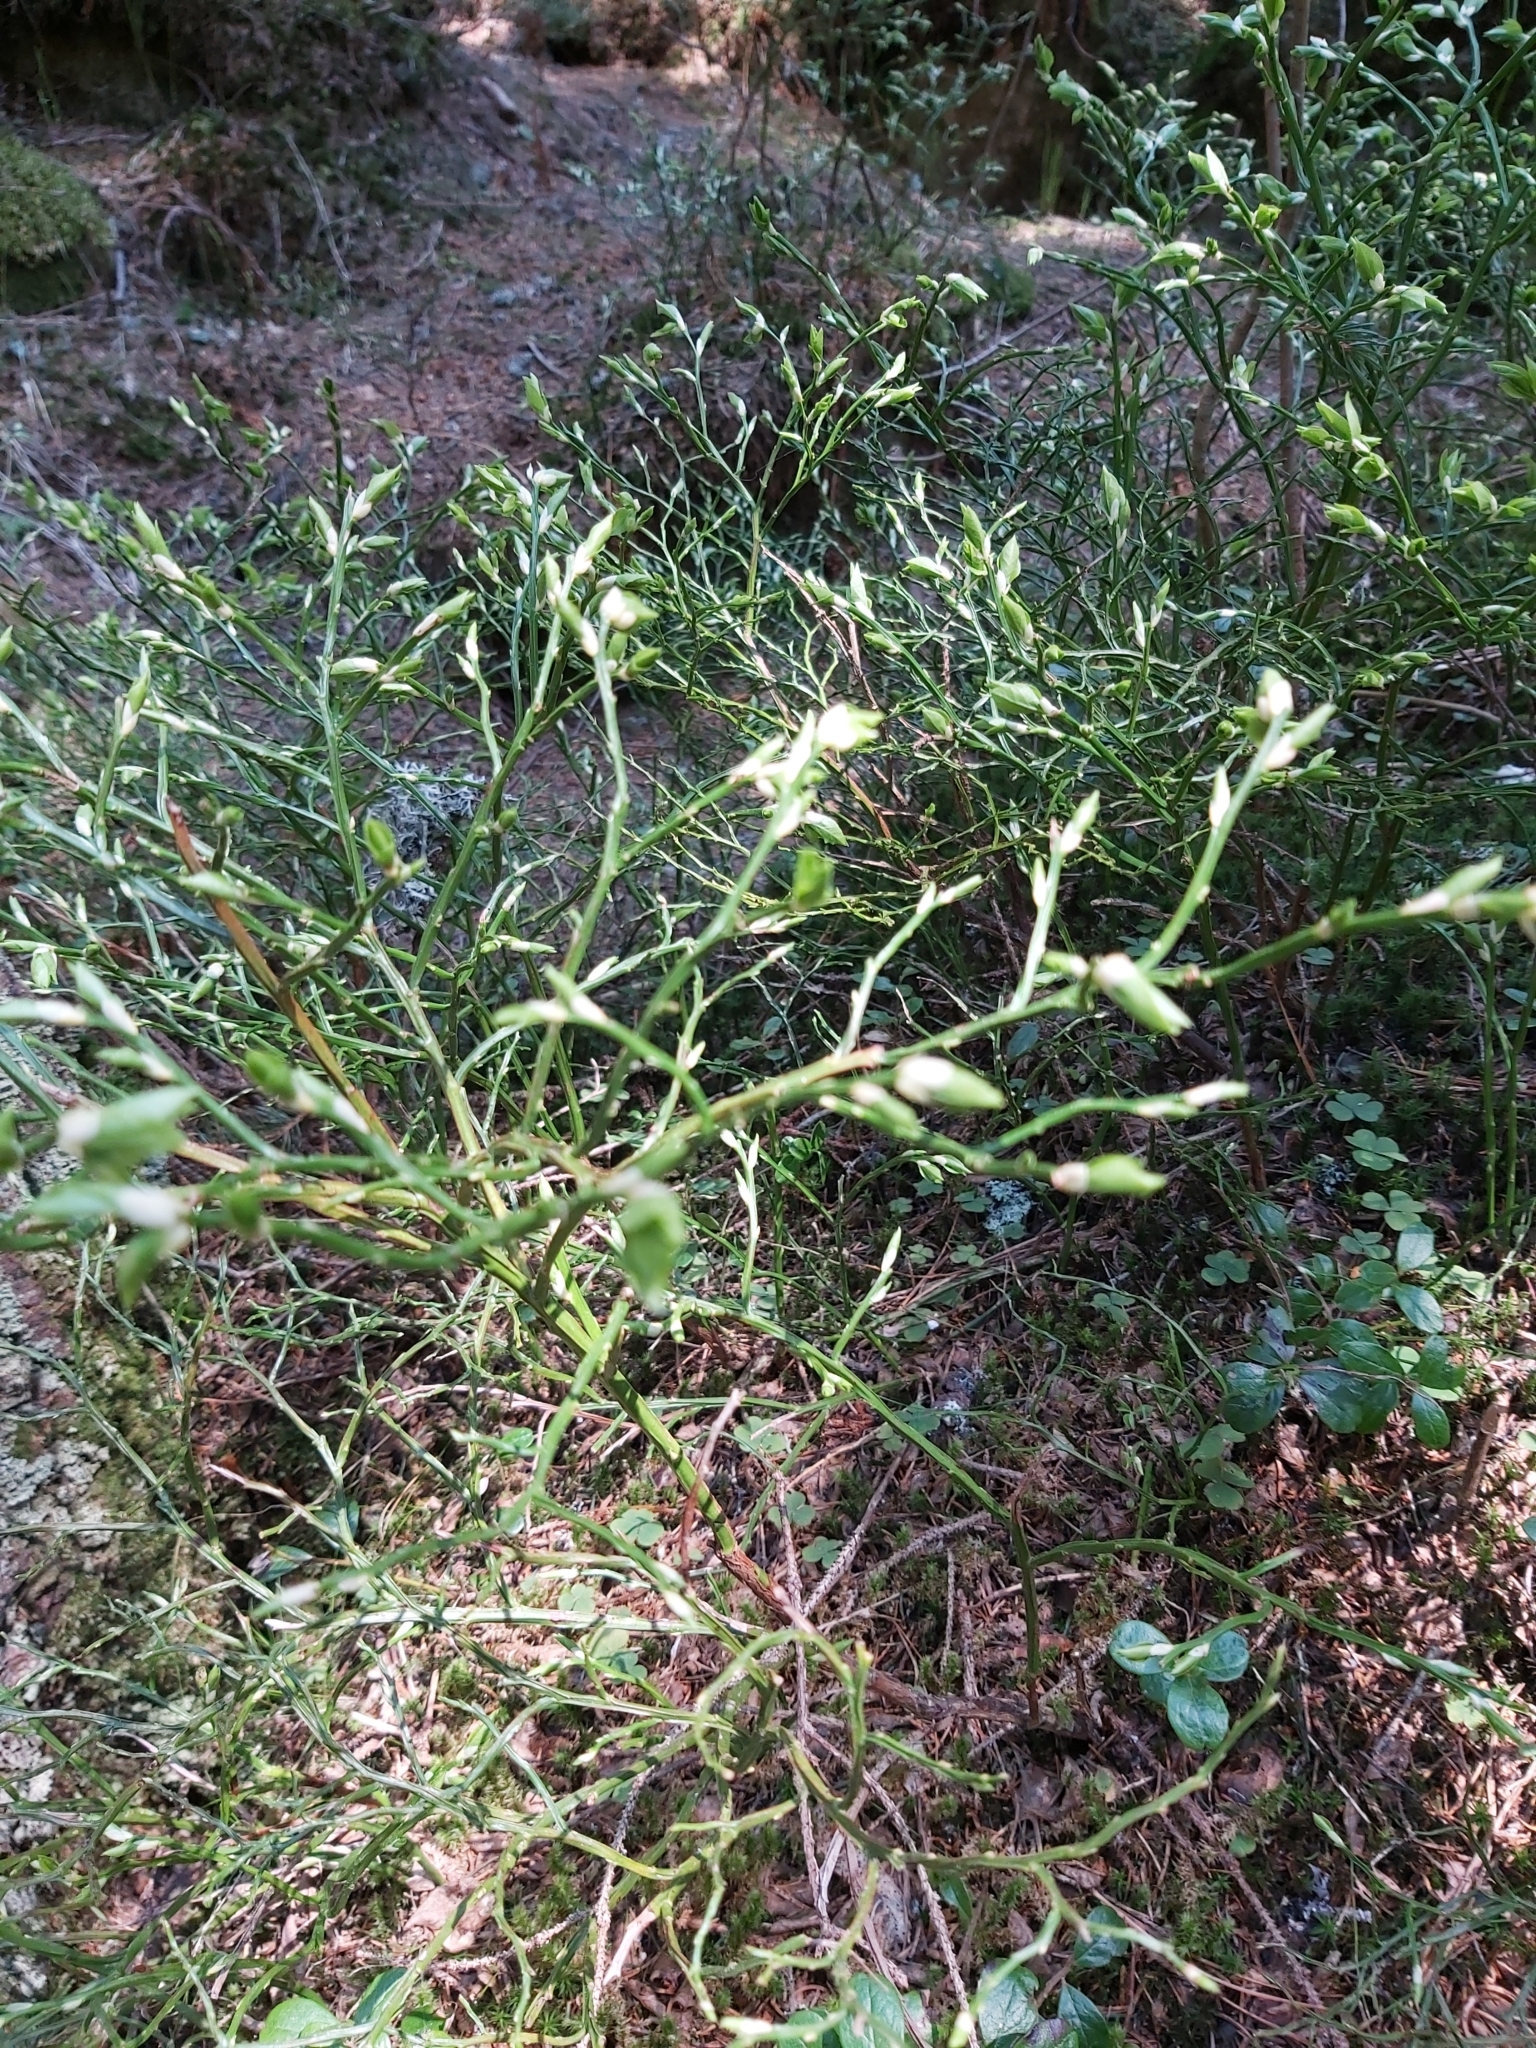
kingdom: Plantae
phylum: Tracheophyta
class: Magnoliopsida
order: Ericales
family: Ericaceae
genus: Vaccinium
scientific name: Vaccinium myrtillus
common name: Bilberry
